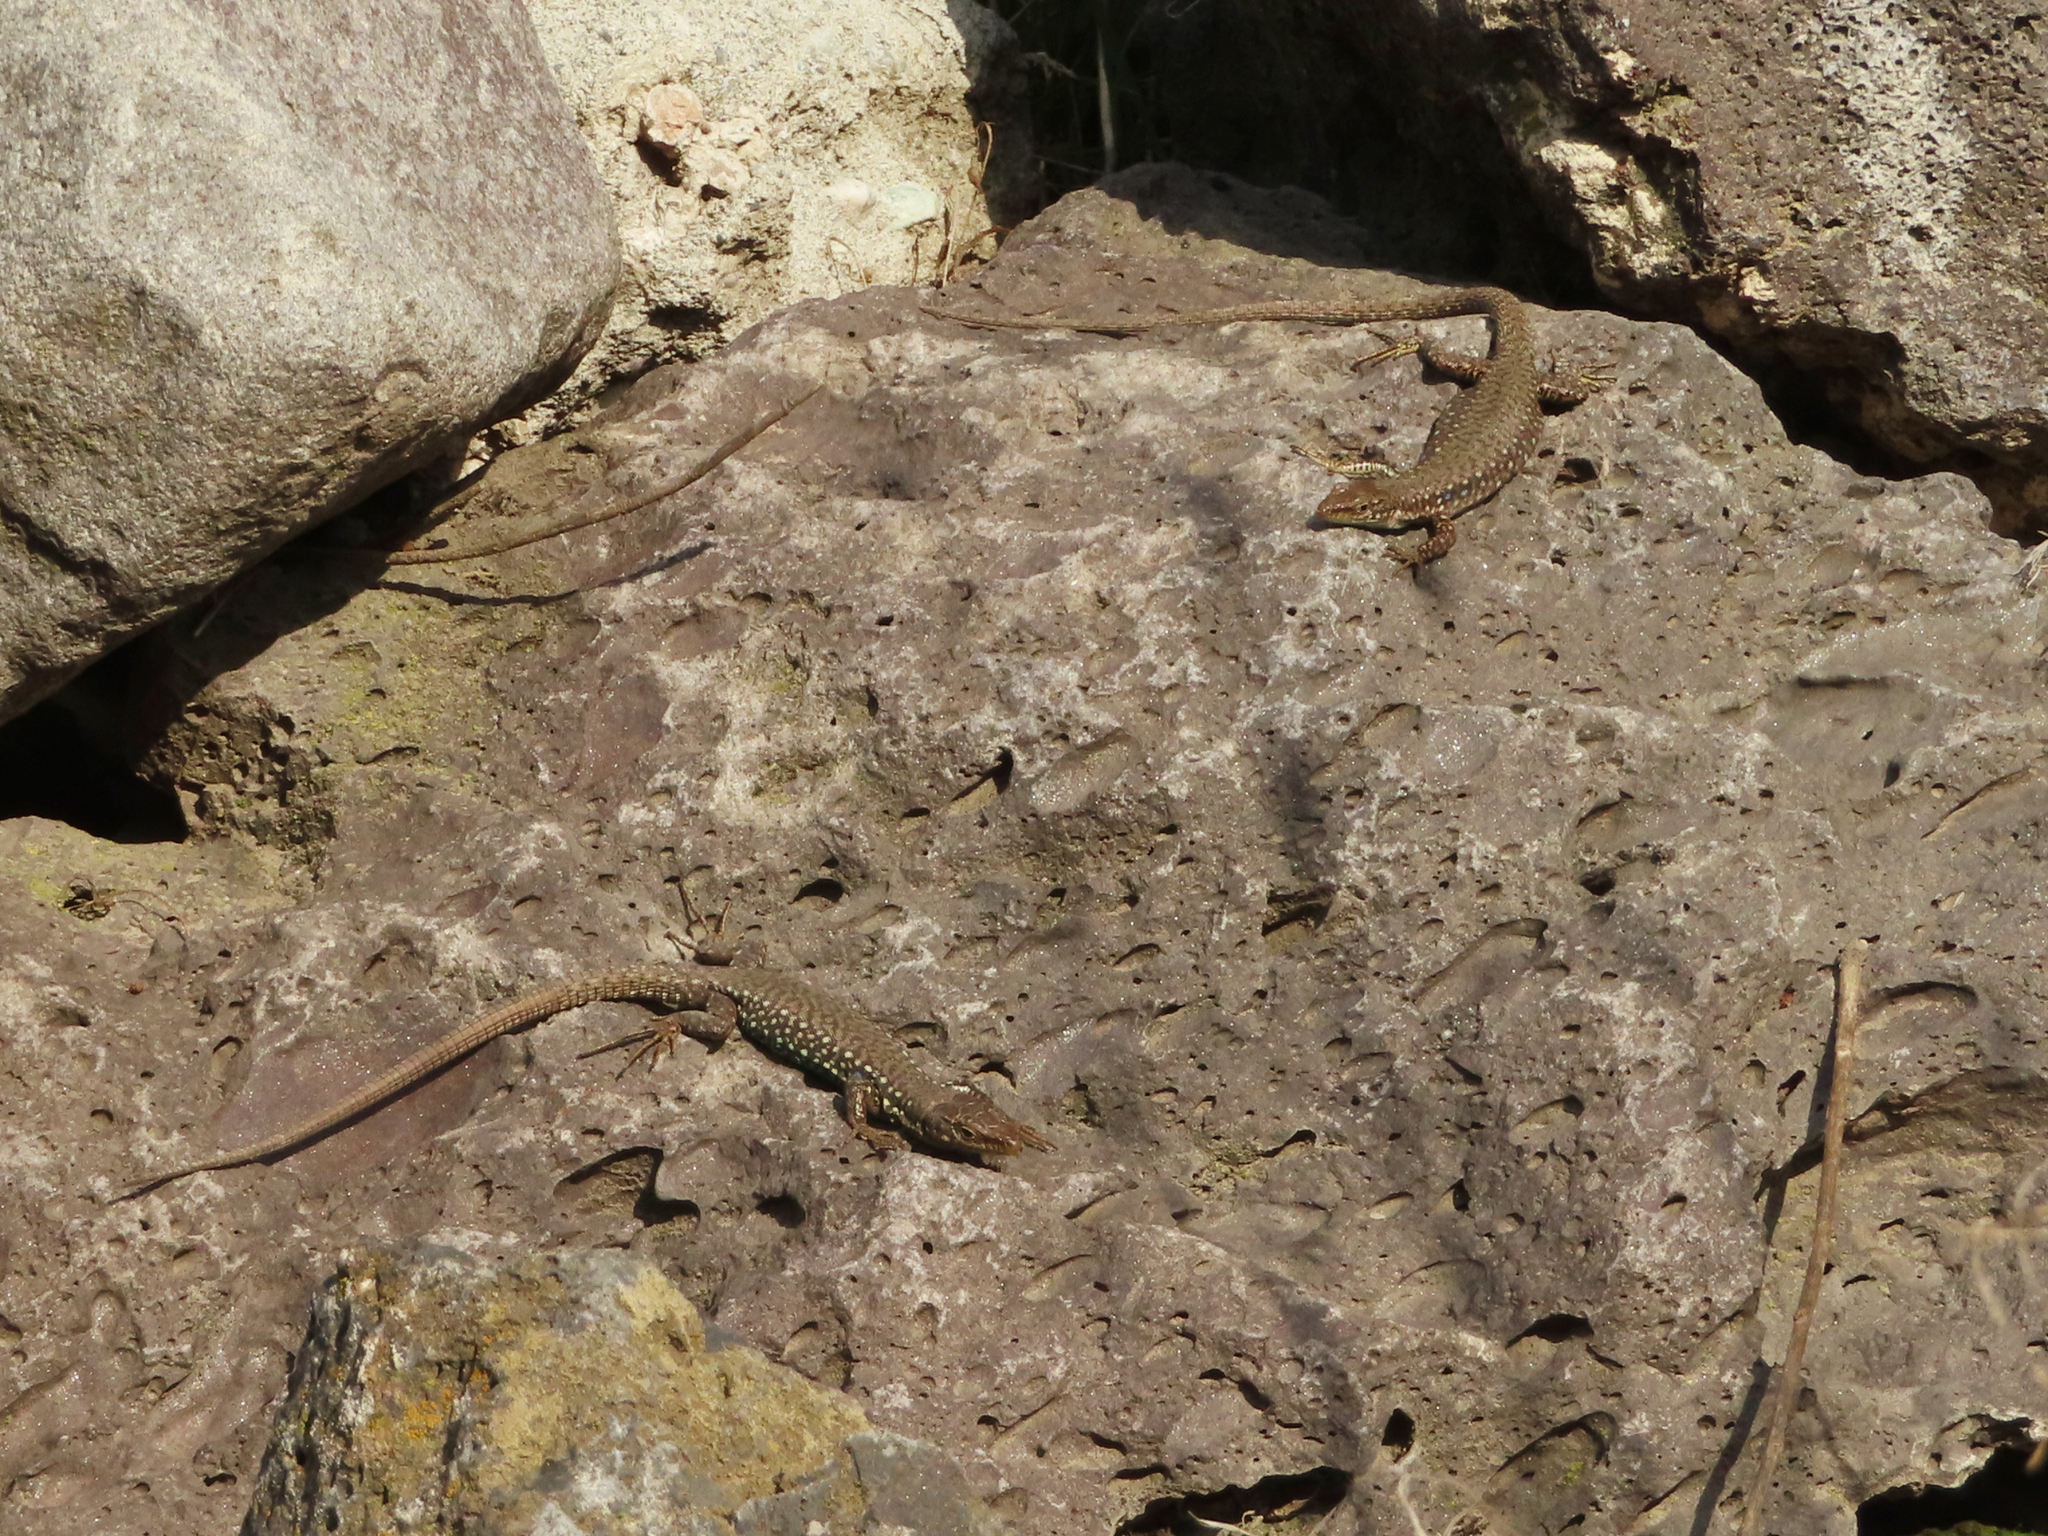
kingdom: Animalia
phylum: Chordata
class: Squamata
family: Lacertidae
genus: Darevskia
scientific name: Darevskia
